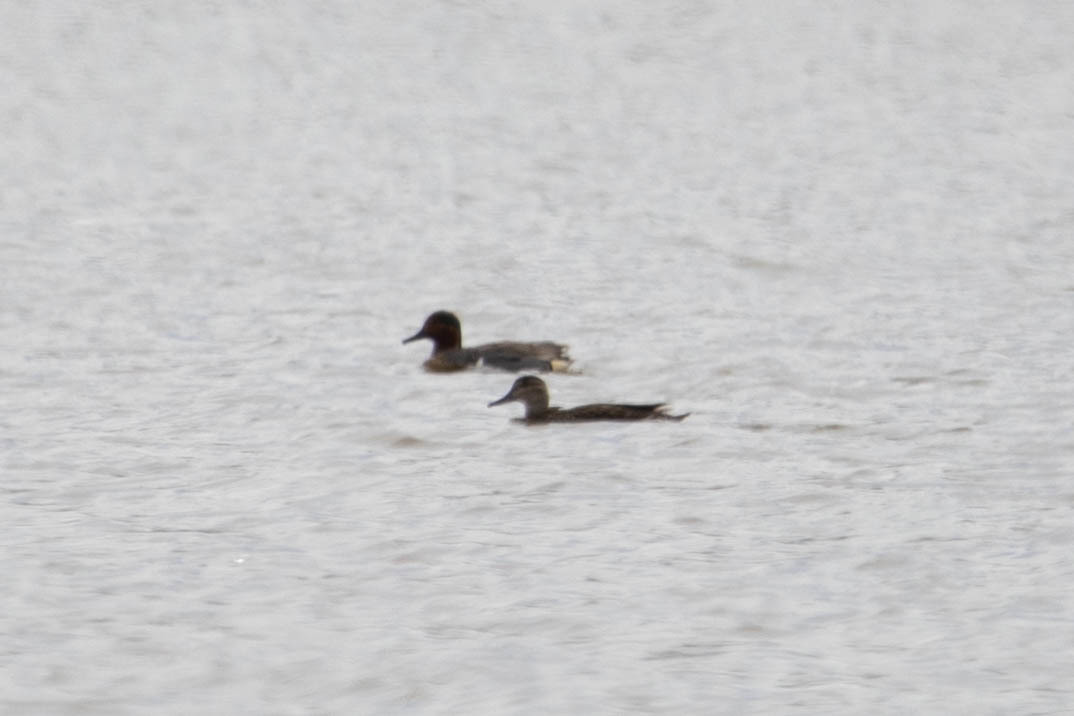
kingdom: Animalia
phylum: Chordata
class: Aves
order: Anseriformes
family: Anatidae
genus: Anas
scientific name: Anas carolinensis
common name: Green-winged teal
